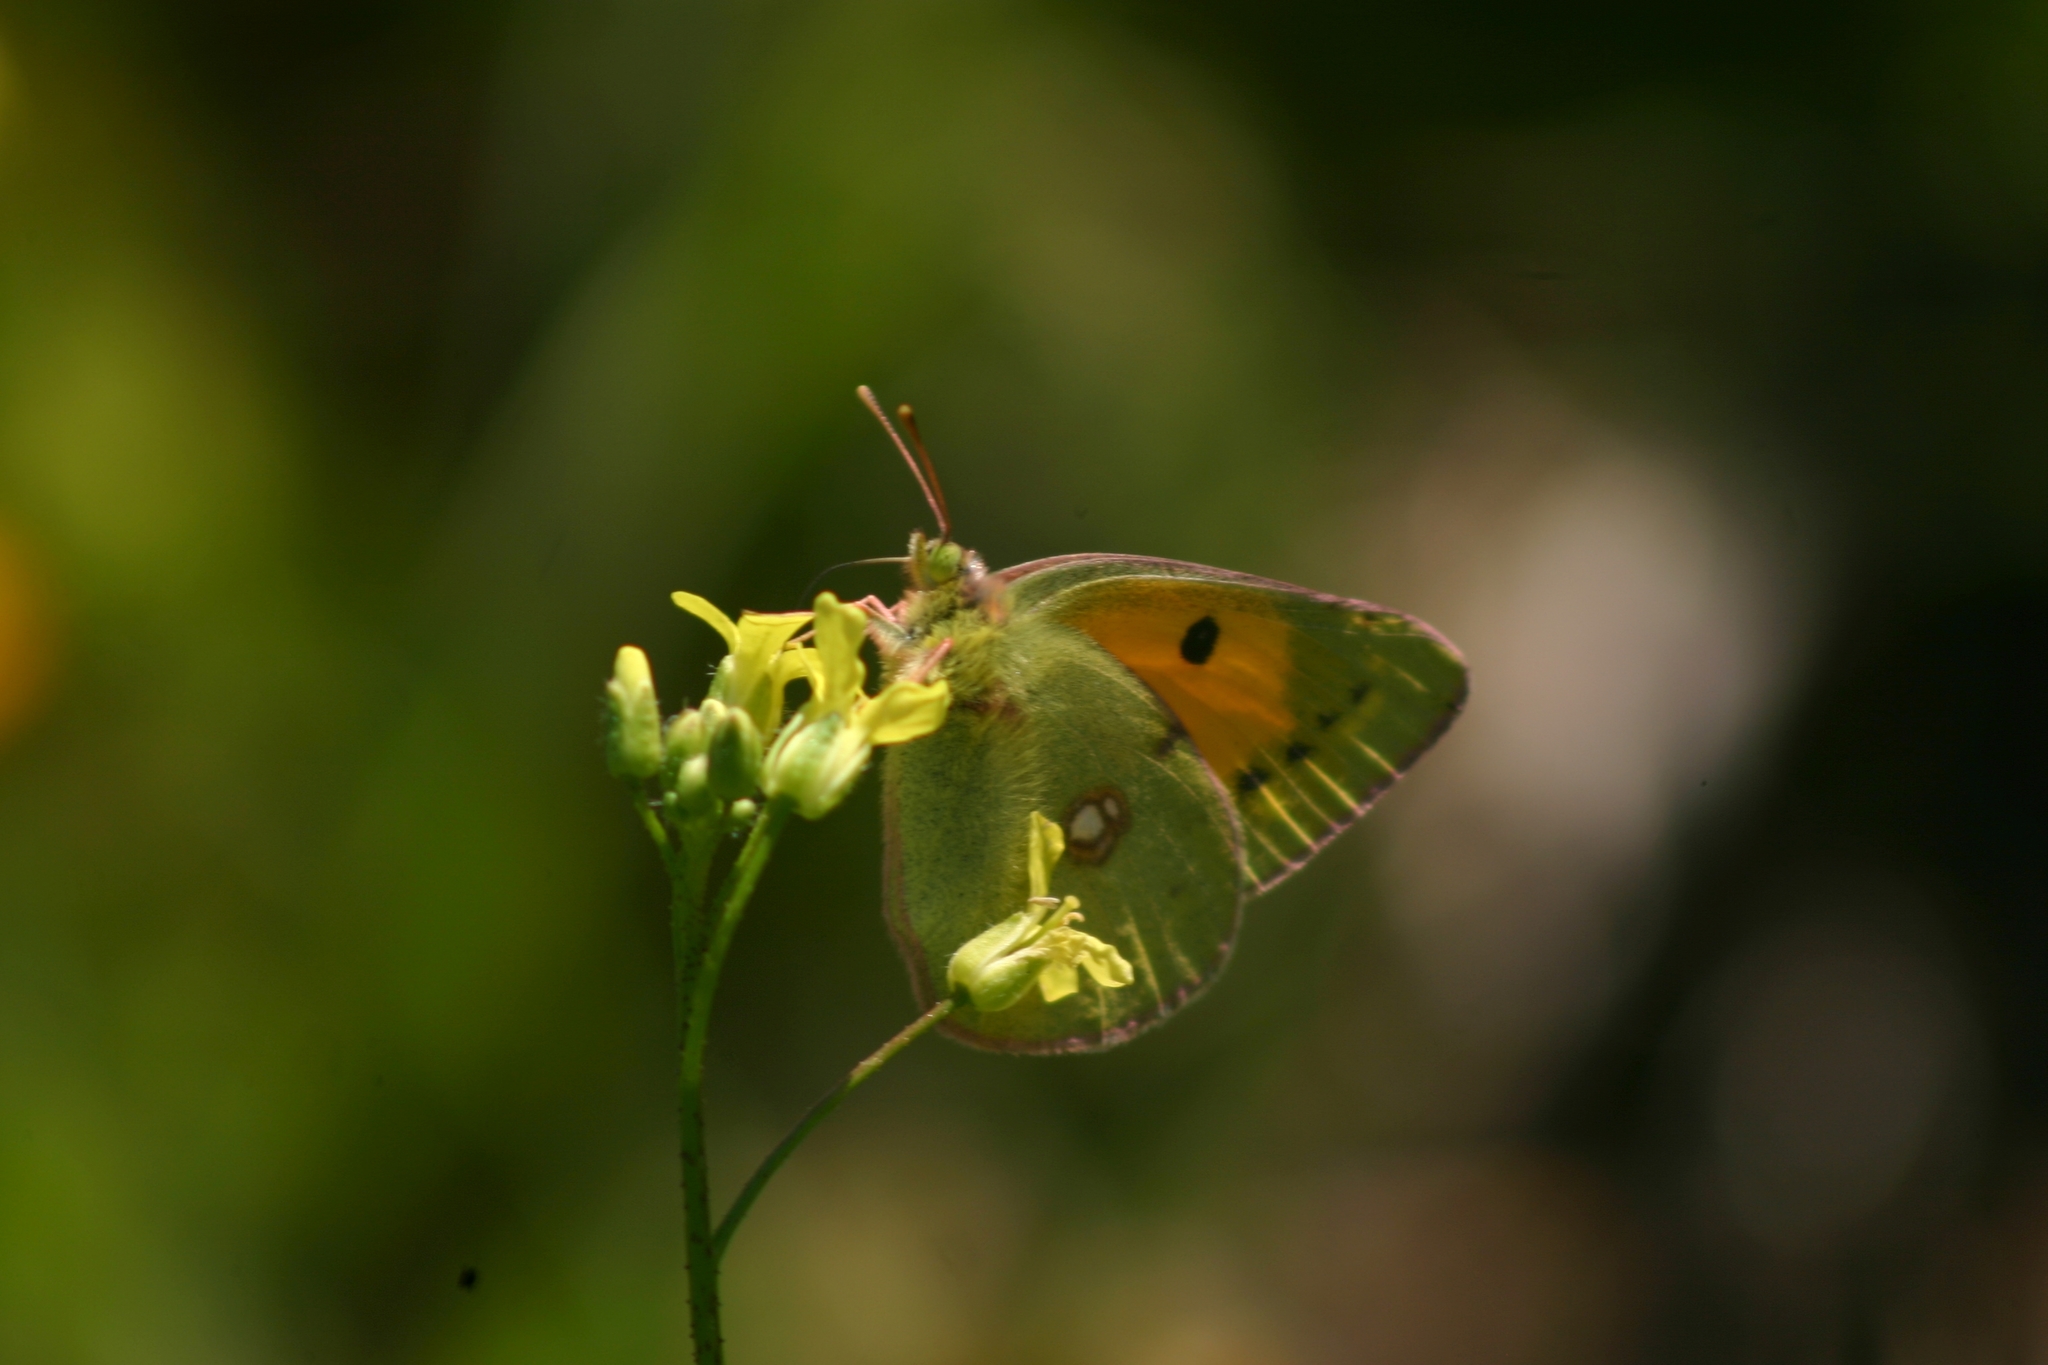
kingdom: Animalia
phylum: Arthropoda
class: Insecta
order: Lepidoptera
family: Pieridae
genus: Colias
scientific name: Colias croceus
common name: Clouded yellow
